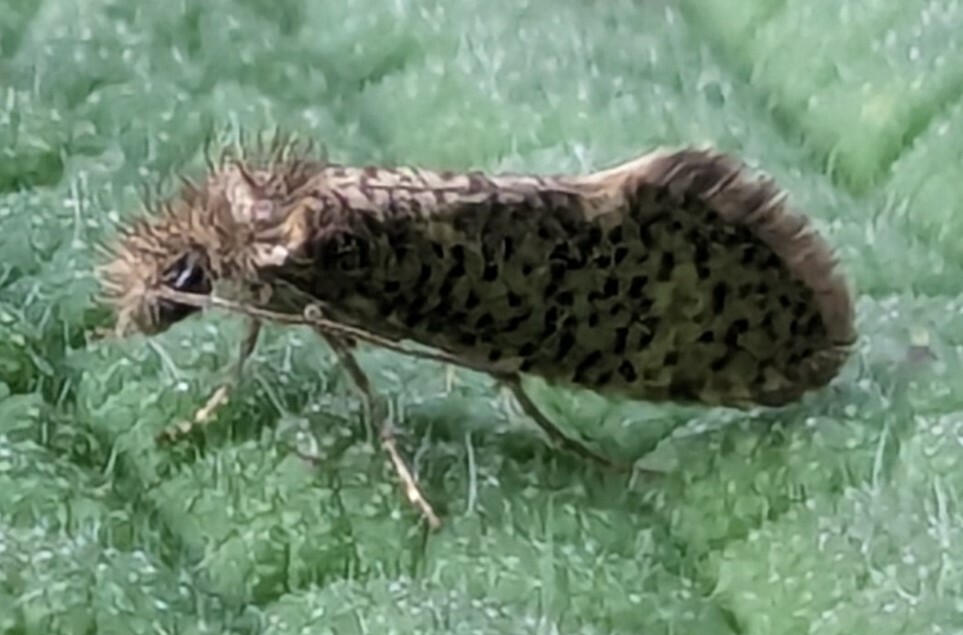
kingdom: Animalia
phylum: Arthropoda
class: Insecta
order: Lepidoptera
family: Eriocraniidae
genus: Dyseriocrania
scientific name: Dyseriocrania subpurpurella
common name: Common oak purple
